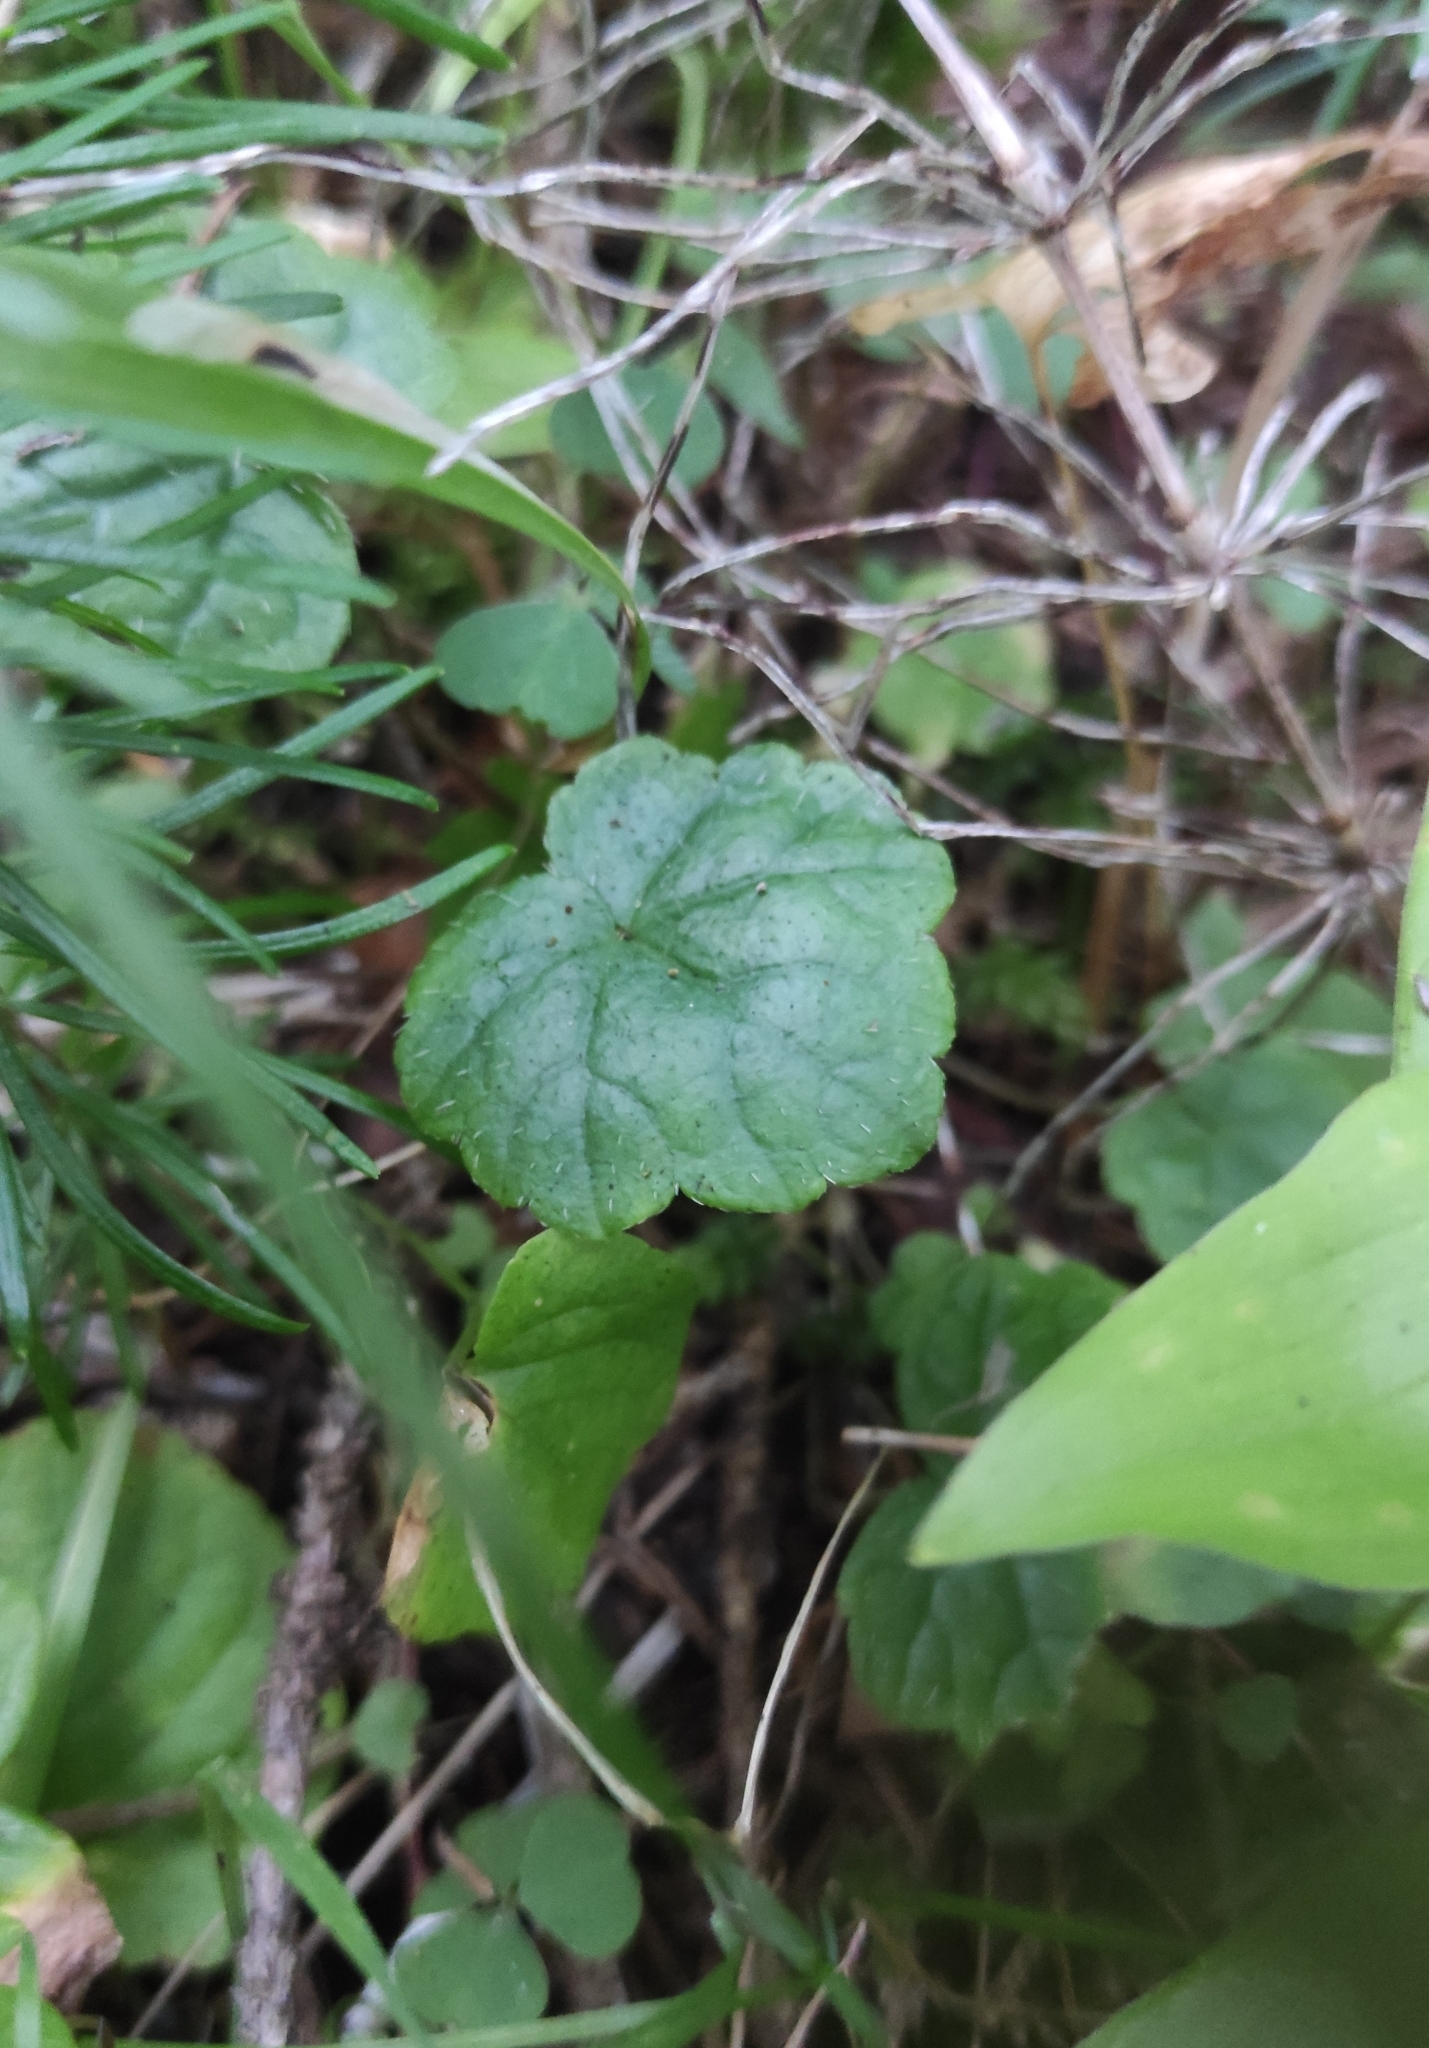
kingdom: Plantae
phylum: Tracheophyta
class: Magnoliopsida
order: Saxifragales
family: Saxifragaceae
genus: Mitella
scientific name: Mitella nuda
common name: Bare-stemmed bishop's-cap
